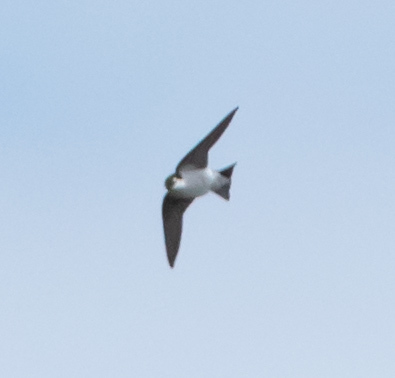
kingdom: Animalia
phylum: Chordata
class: Aves
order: Passeriformes
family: Hirundinidae
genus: Tachycineta
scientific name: Tachycineta thalassina
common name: Violet-green swallow
